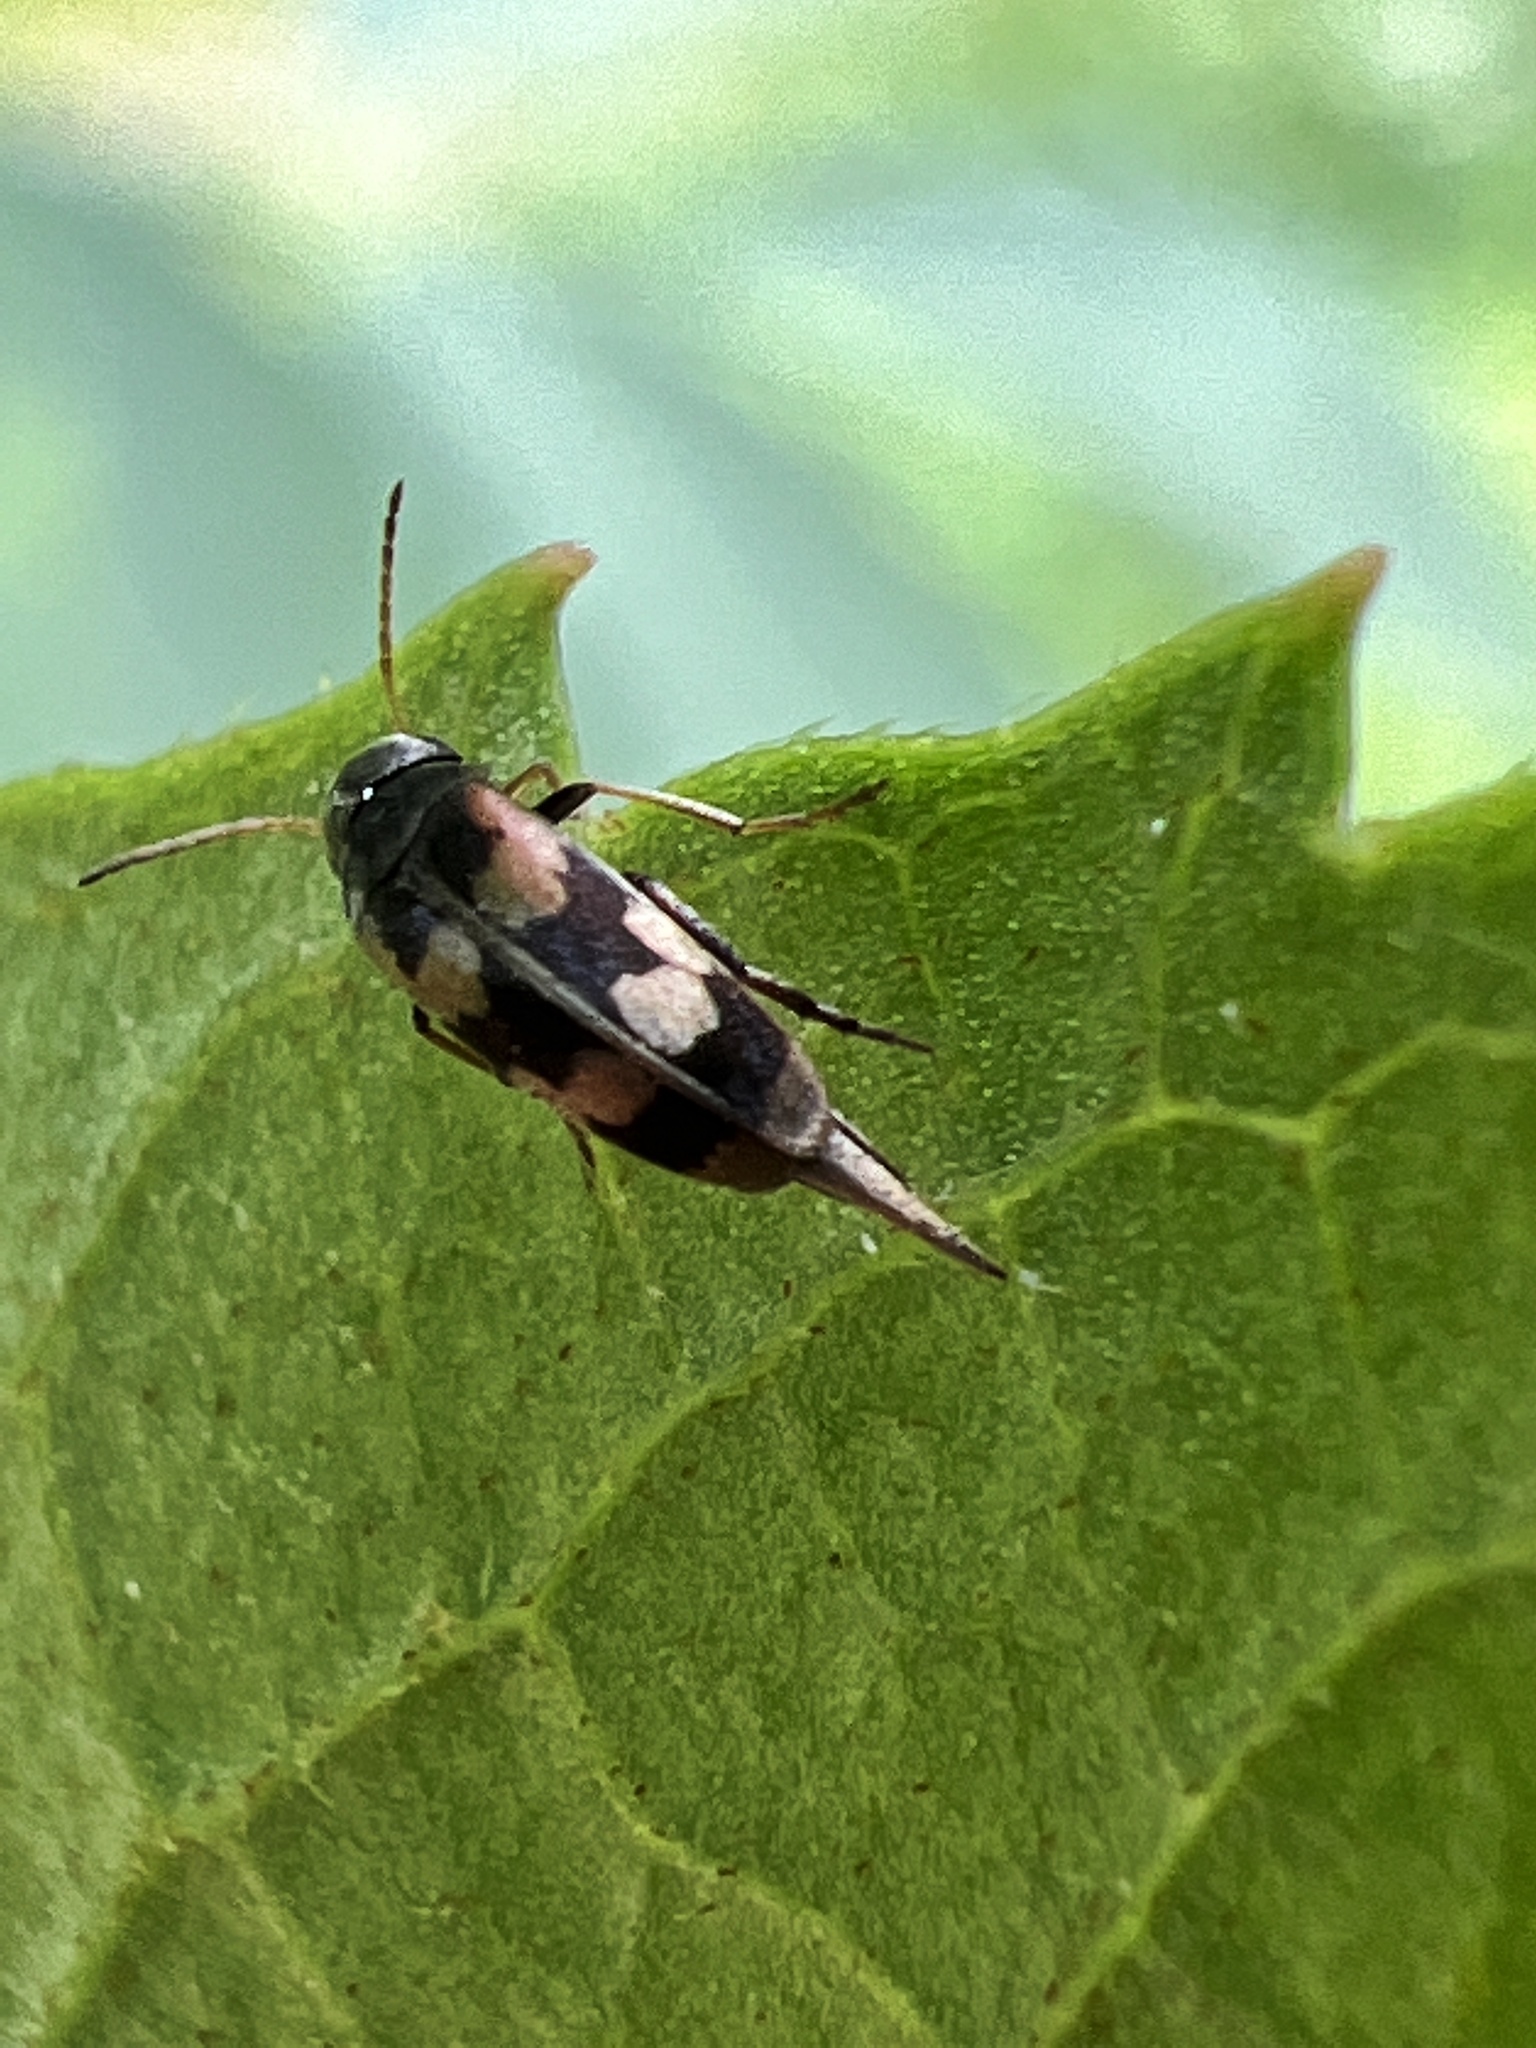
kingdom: Animalia
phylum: Arthropoda
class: Insecta
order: Coleoptera
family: Mordellidae
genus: Falsomordellistena
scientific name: Falsomordellistena pubescens
